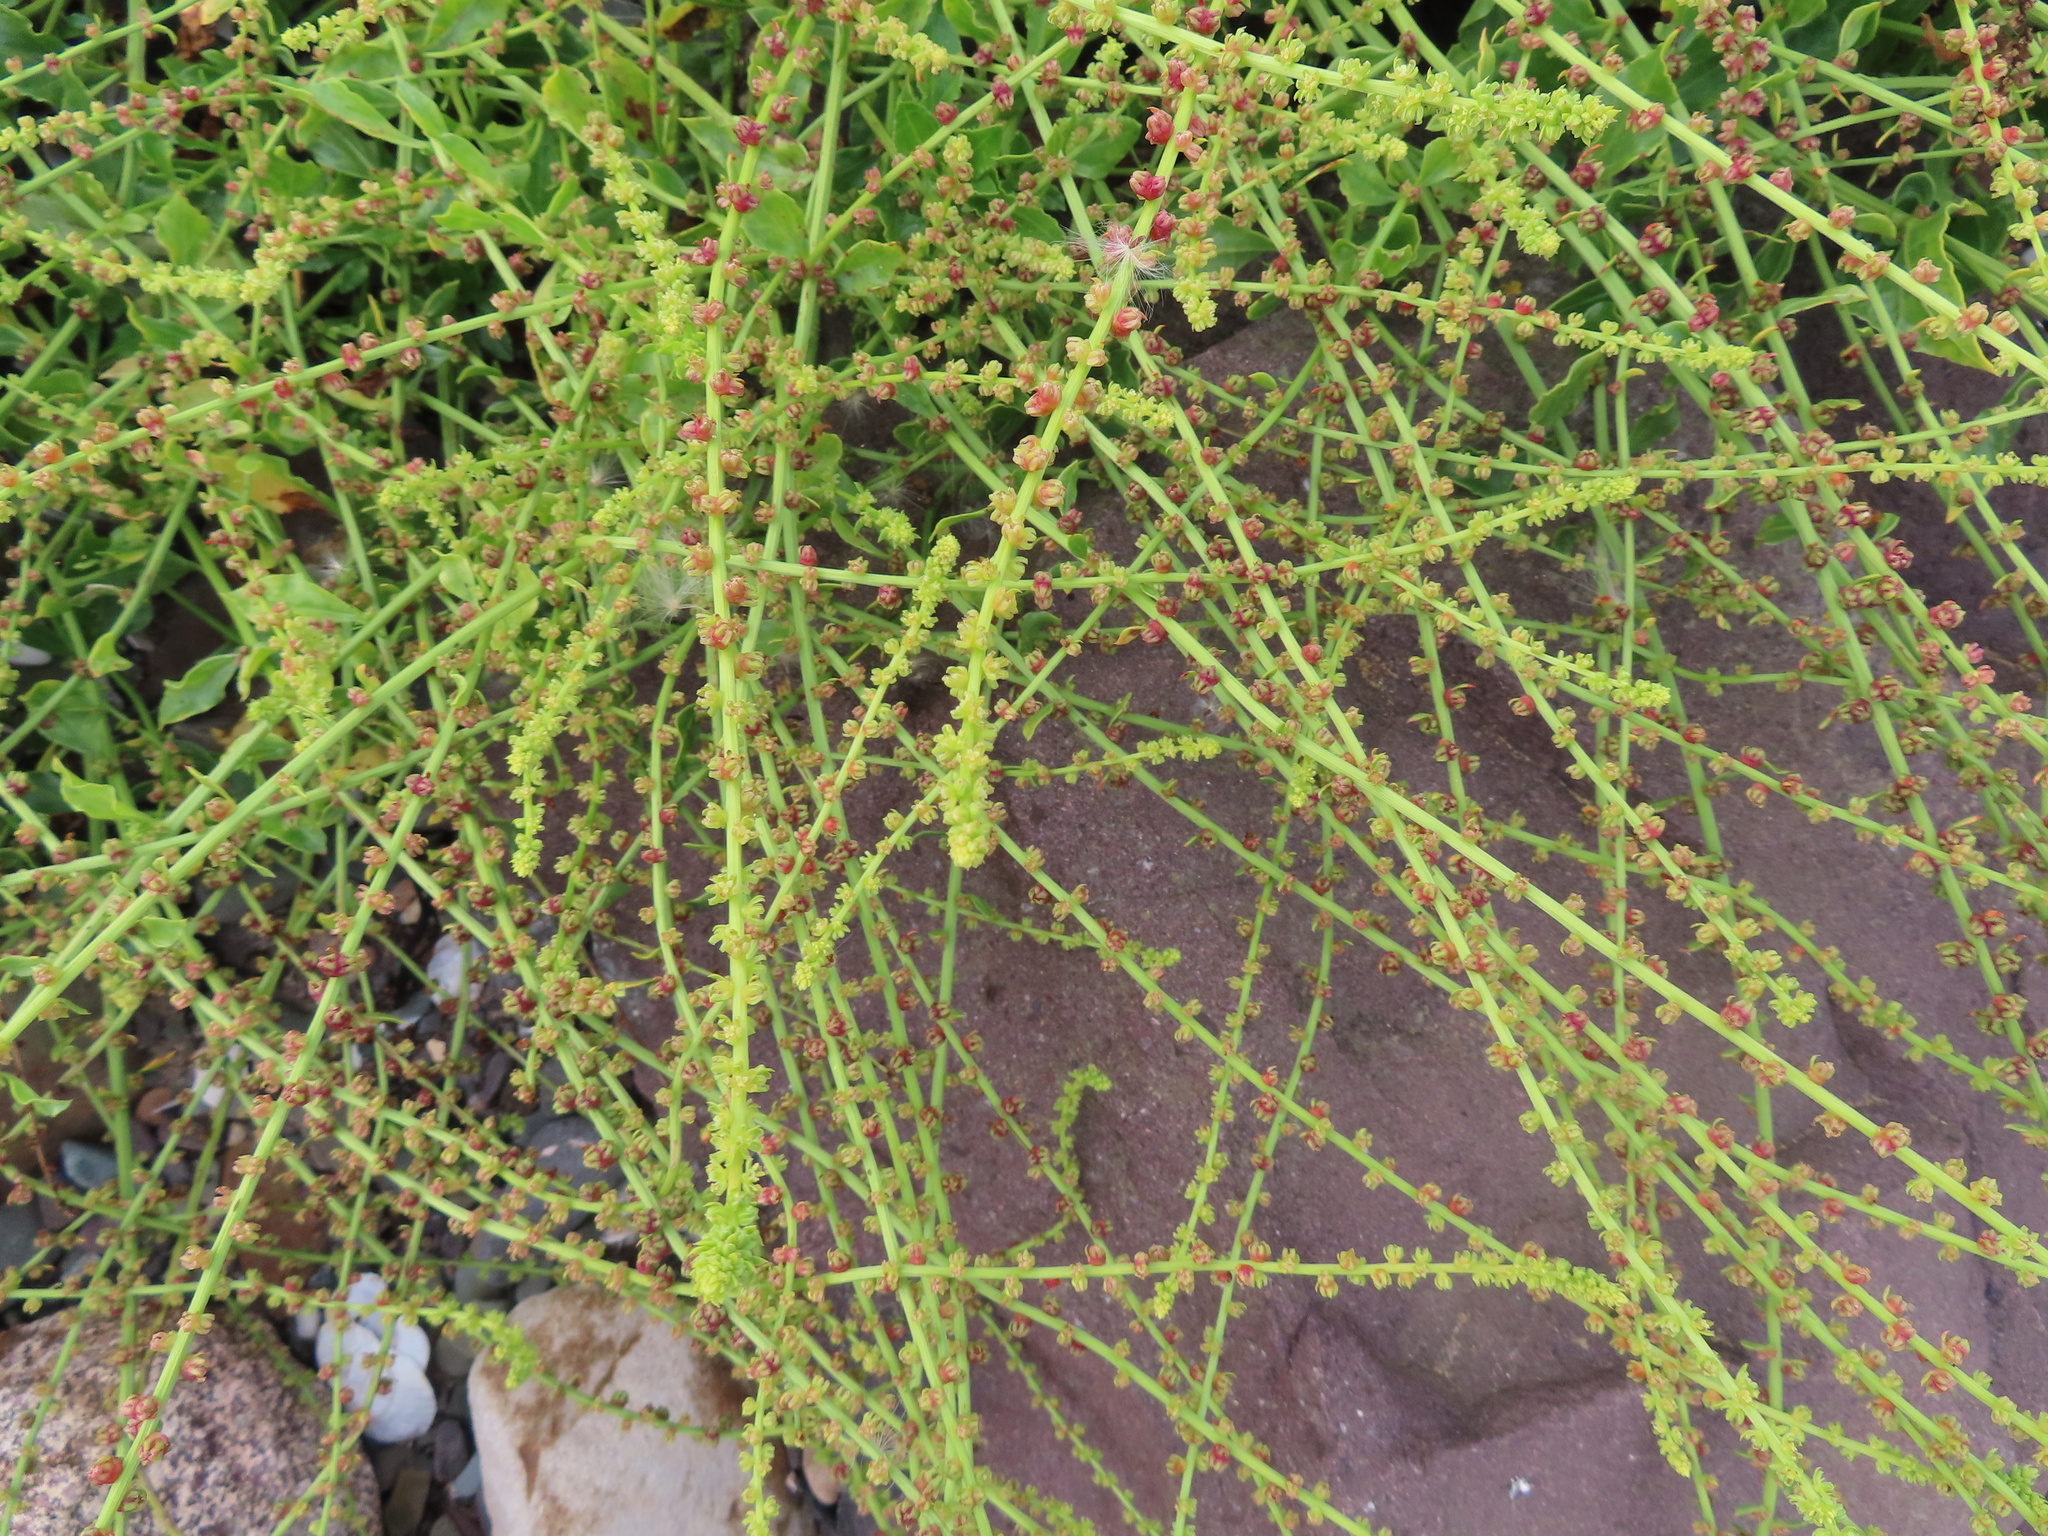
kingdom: Plantae
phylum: Tracheophyta
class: Magnoliopsida
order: Caryophyllales
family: Amaranthaceae
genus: Beta
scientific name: Beta vulgaris
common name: Beet
